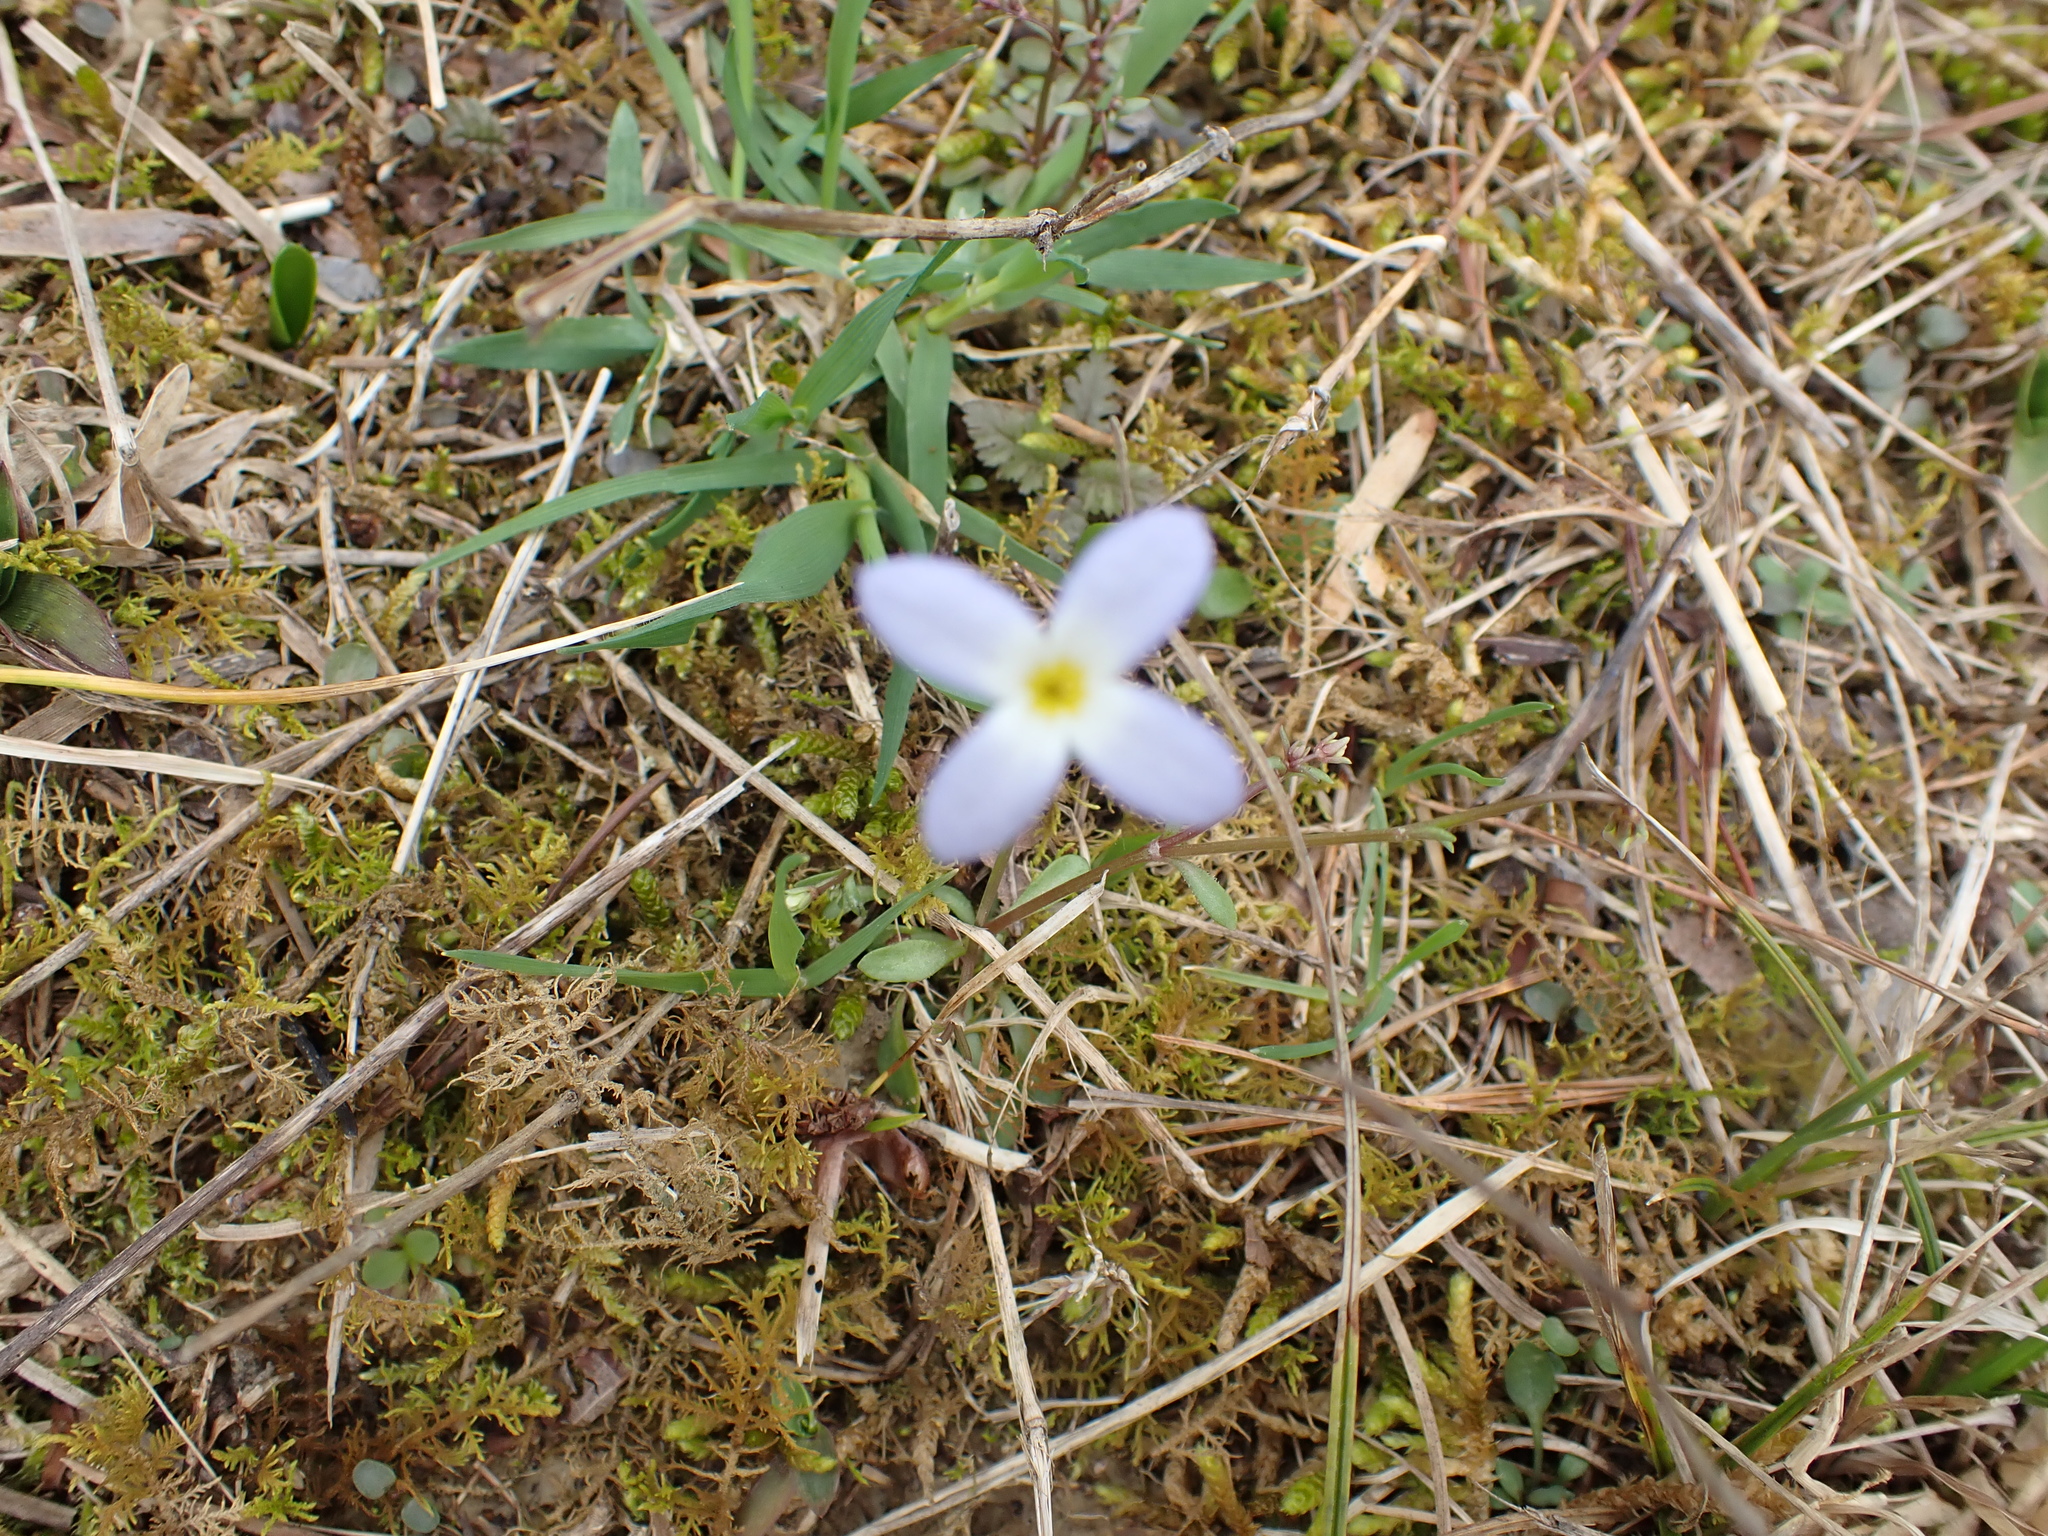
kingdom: Plantae
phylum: Tracheophyta
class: Magnoliopsida
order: Gentianales
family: Rubiaceae
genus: Houstonia
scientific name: Houstonia caerulea
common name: Bluets
